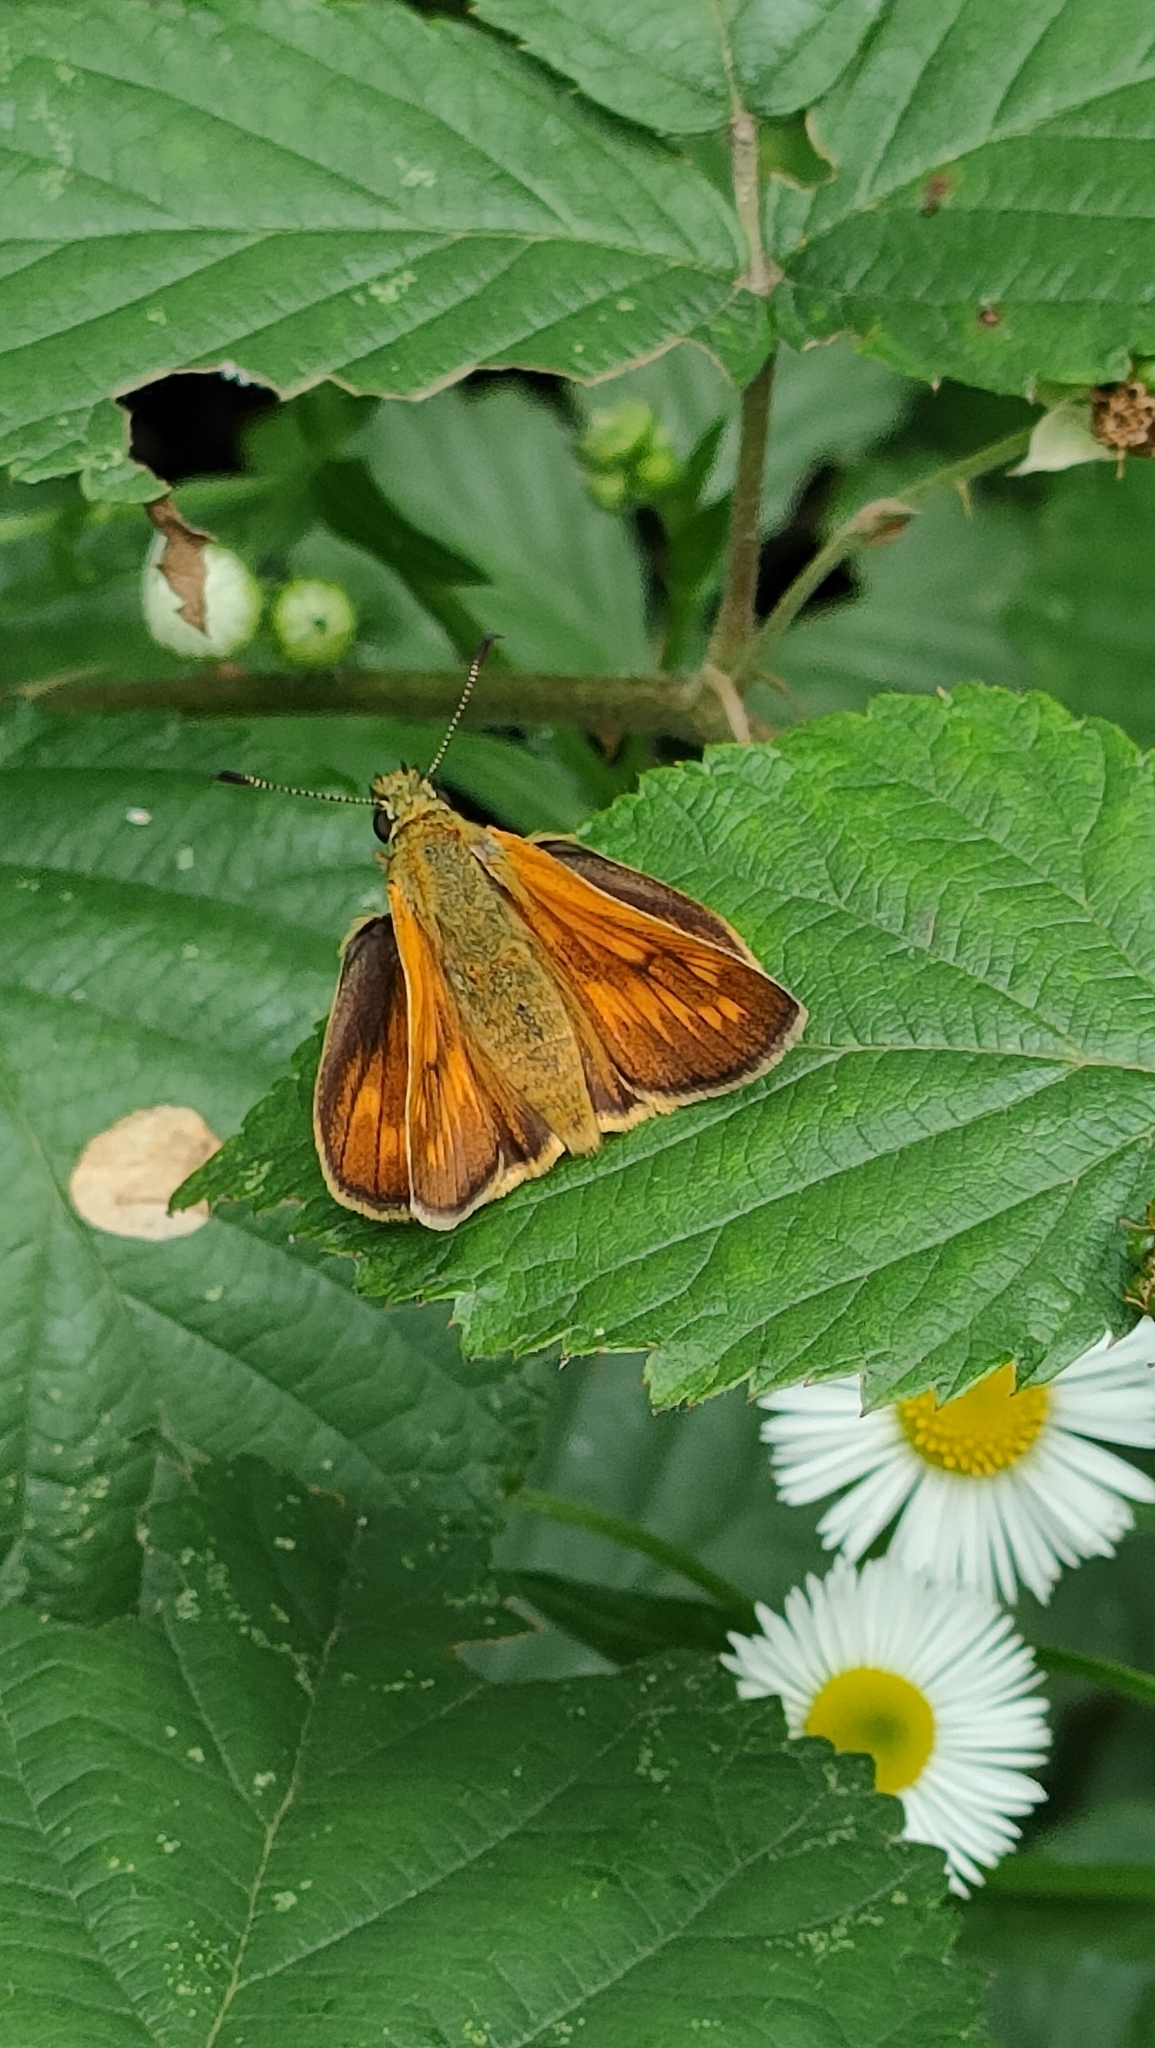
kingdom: Animalia
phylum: Arthropoda
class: Insecta
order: Lepidoptera
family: Hesperiidae
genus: Ochlodes
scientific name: Ochlodes venata
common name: Large skipper
